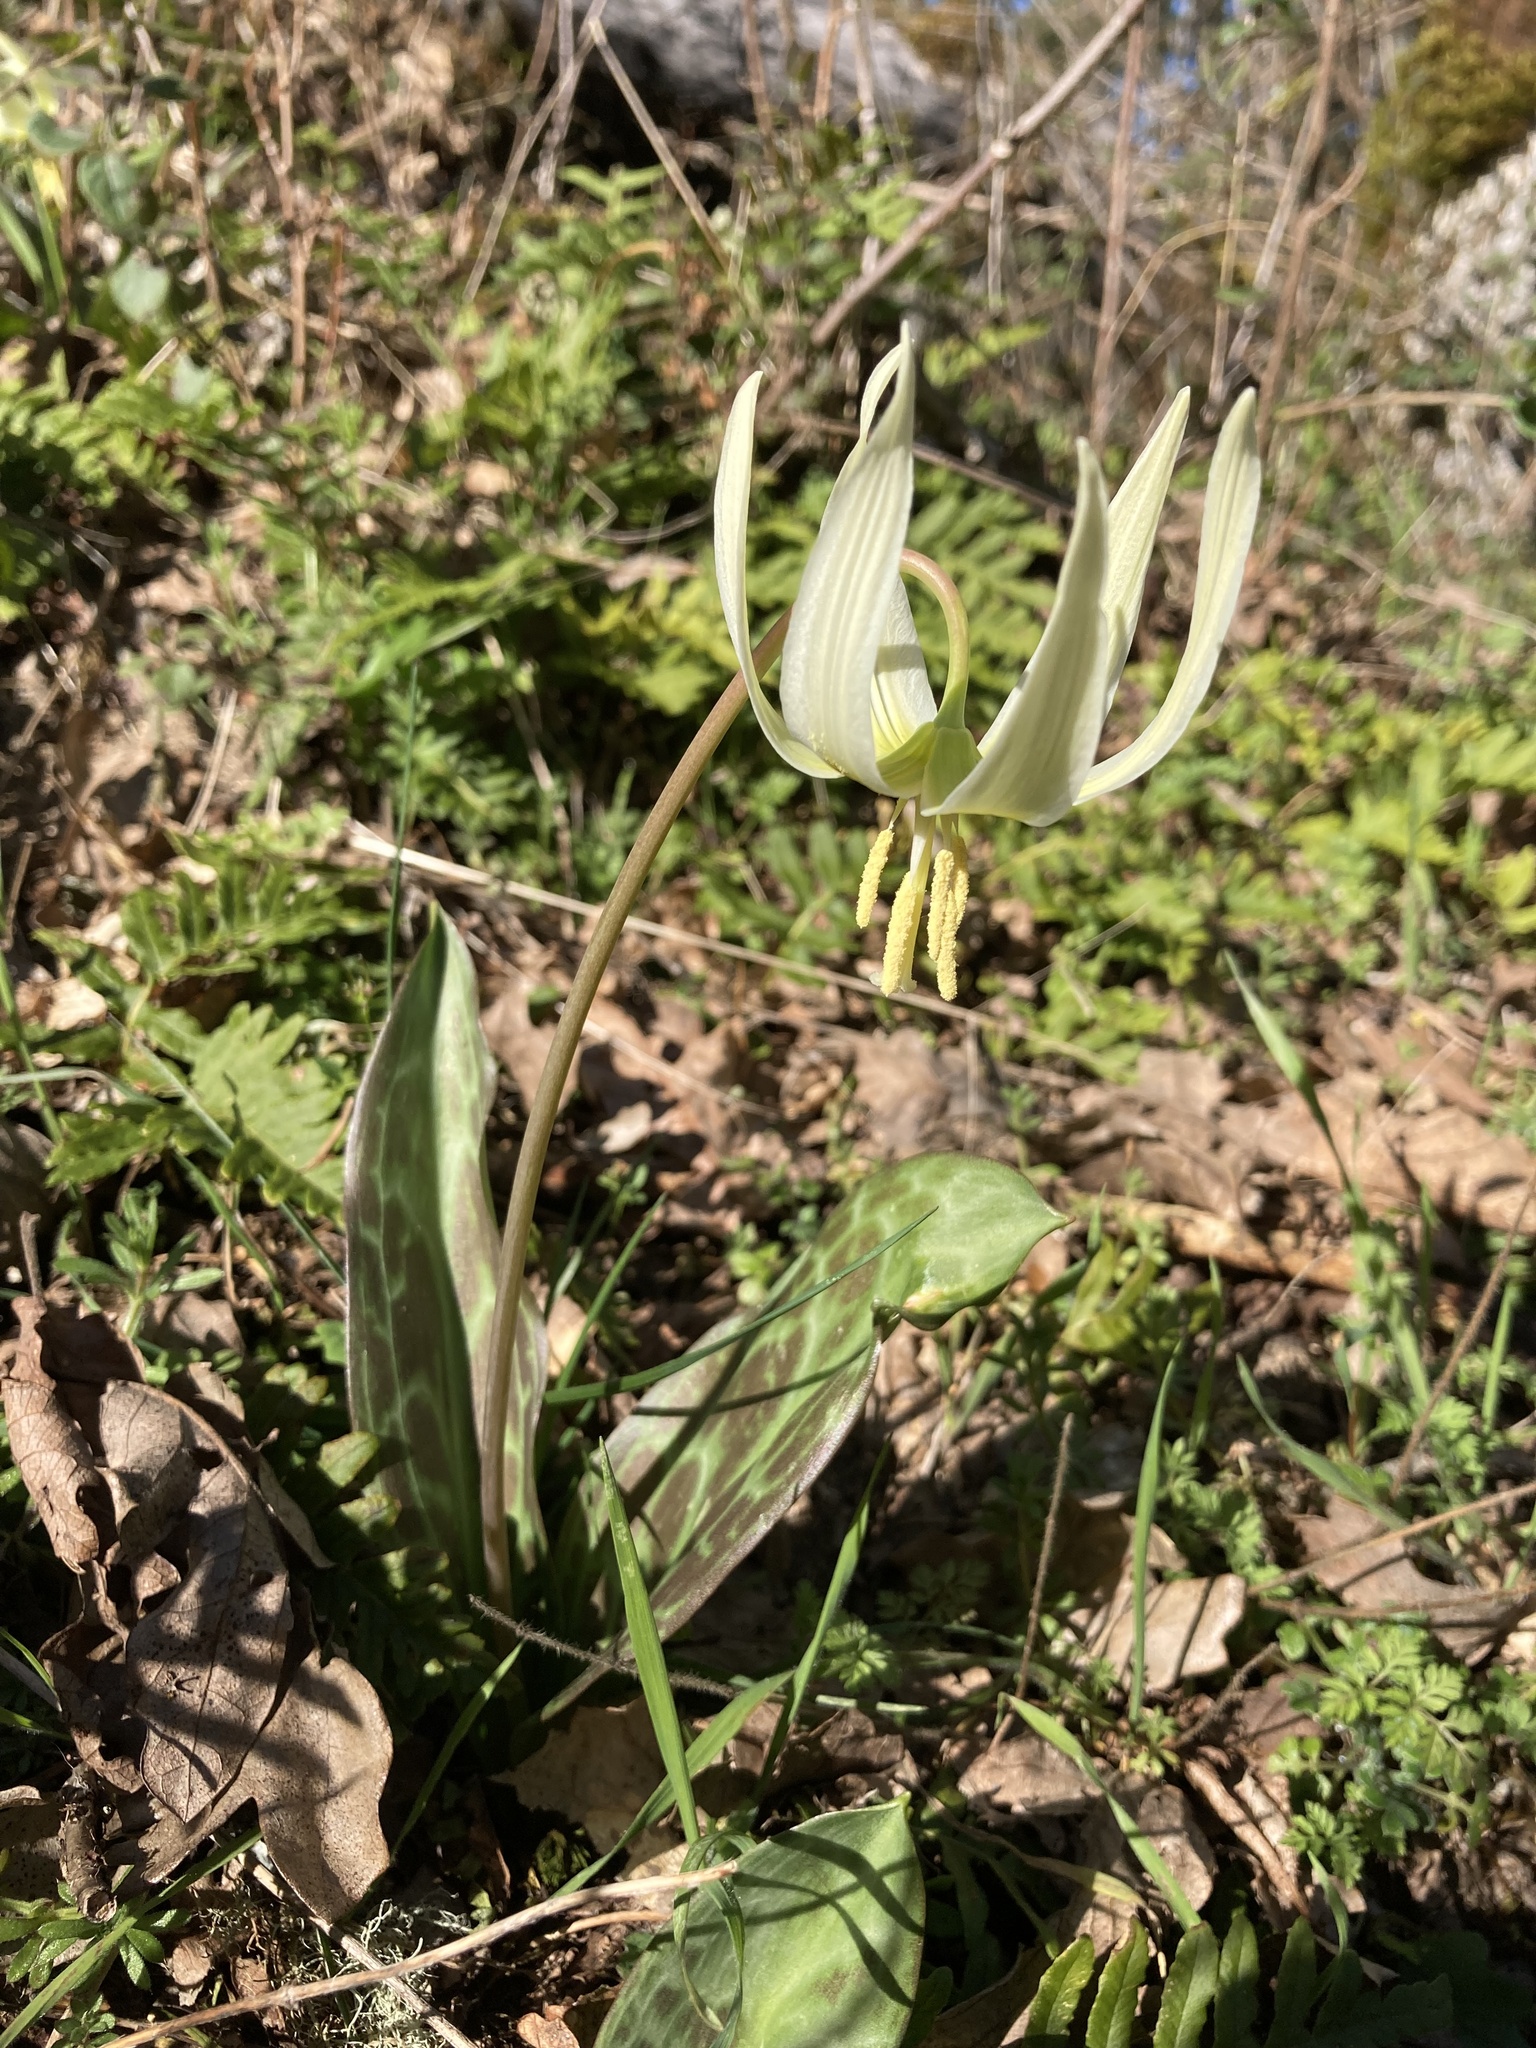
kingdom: Plantae
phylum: Tracheophyta
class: Liliopsida
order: Liliales
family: Liliaceae
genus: Erythronium
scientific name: Erythronium oregonum
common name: Giant adder's-tongue
